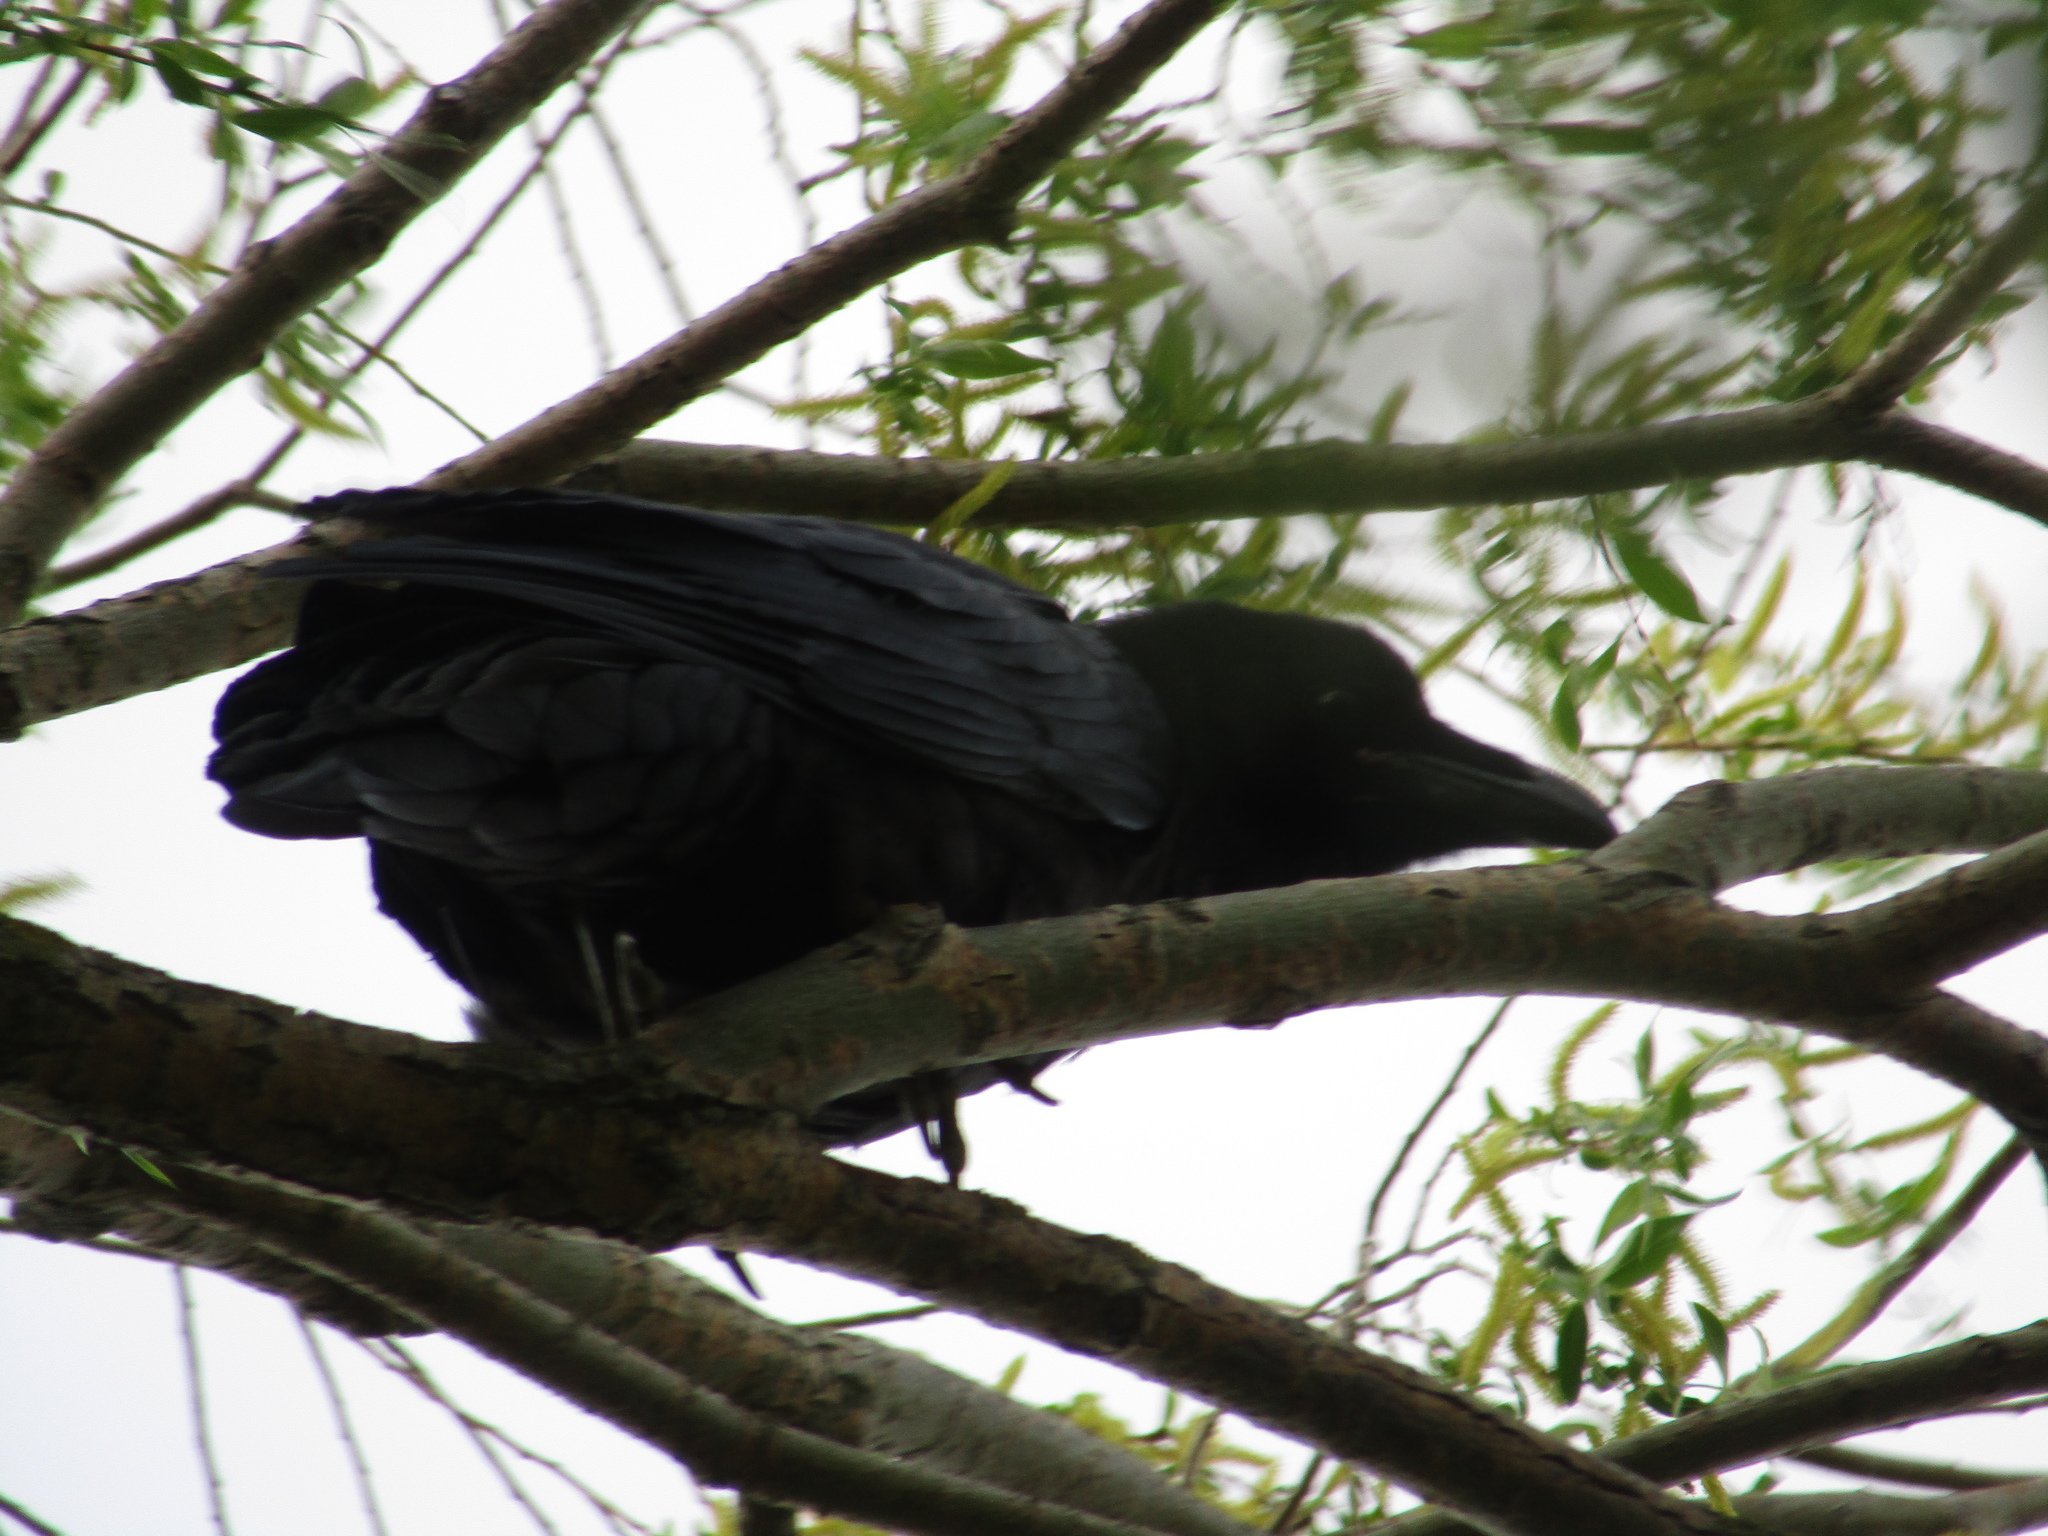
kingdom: Animalia
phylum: Chordata
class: Aves
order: Passeriformes
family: Corvidae
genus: Corvus
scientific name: Corvus corax
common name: Common raven
